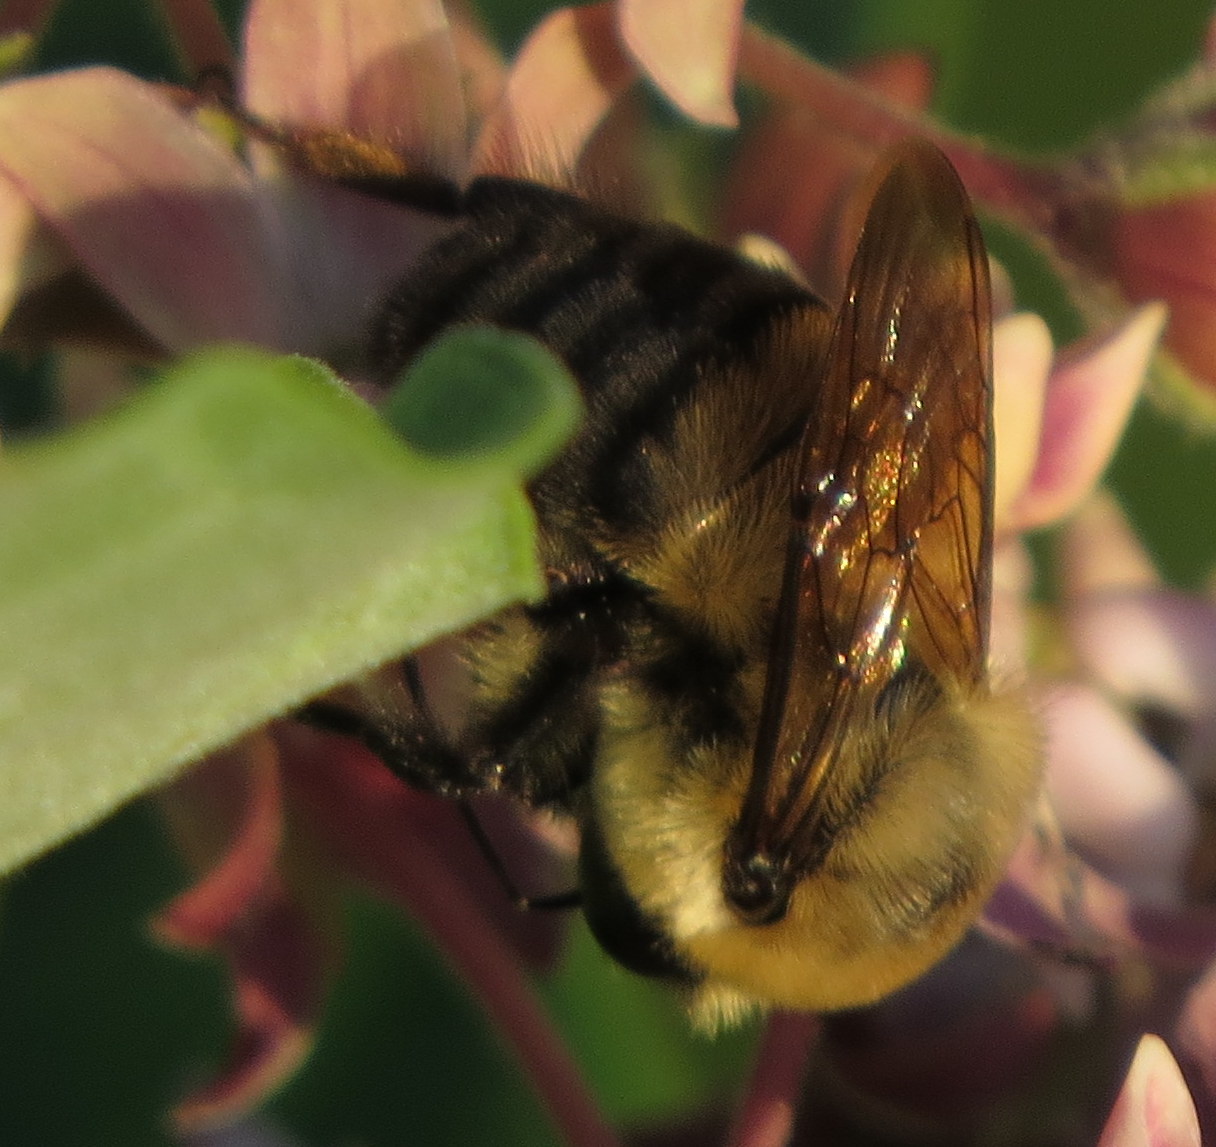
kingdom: Animalia
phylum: Arthropoda
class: Insecta
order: Hymenoptera
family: Apidae
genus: Bombus
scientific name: Bombus griseocollis
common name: Brown-belted bumble bee
